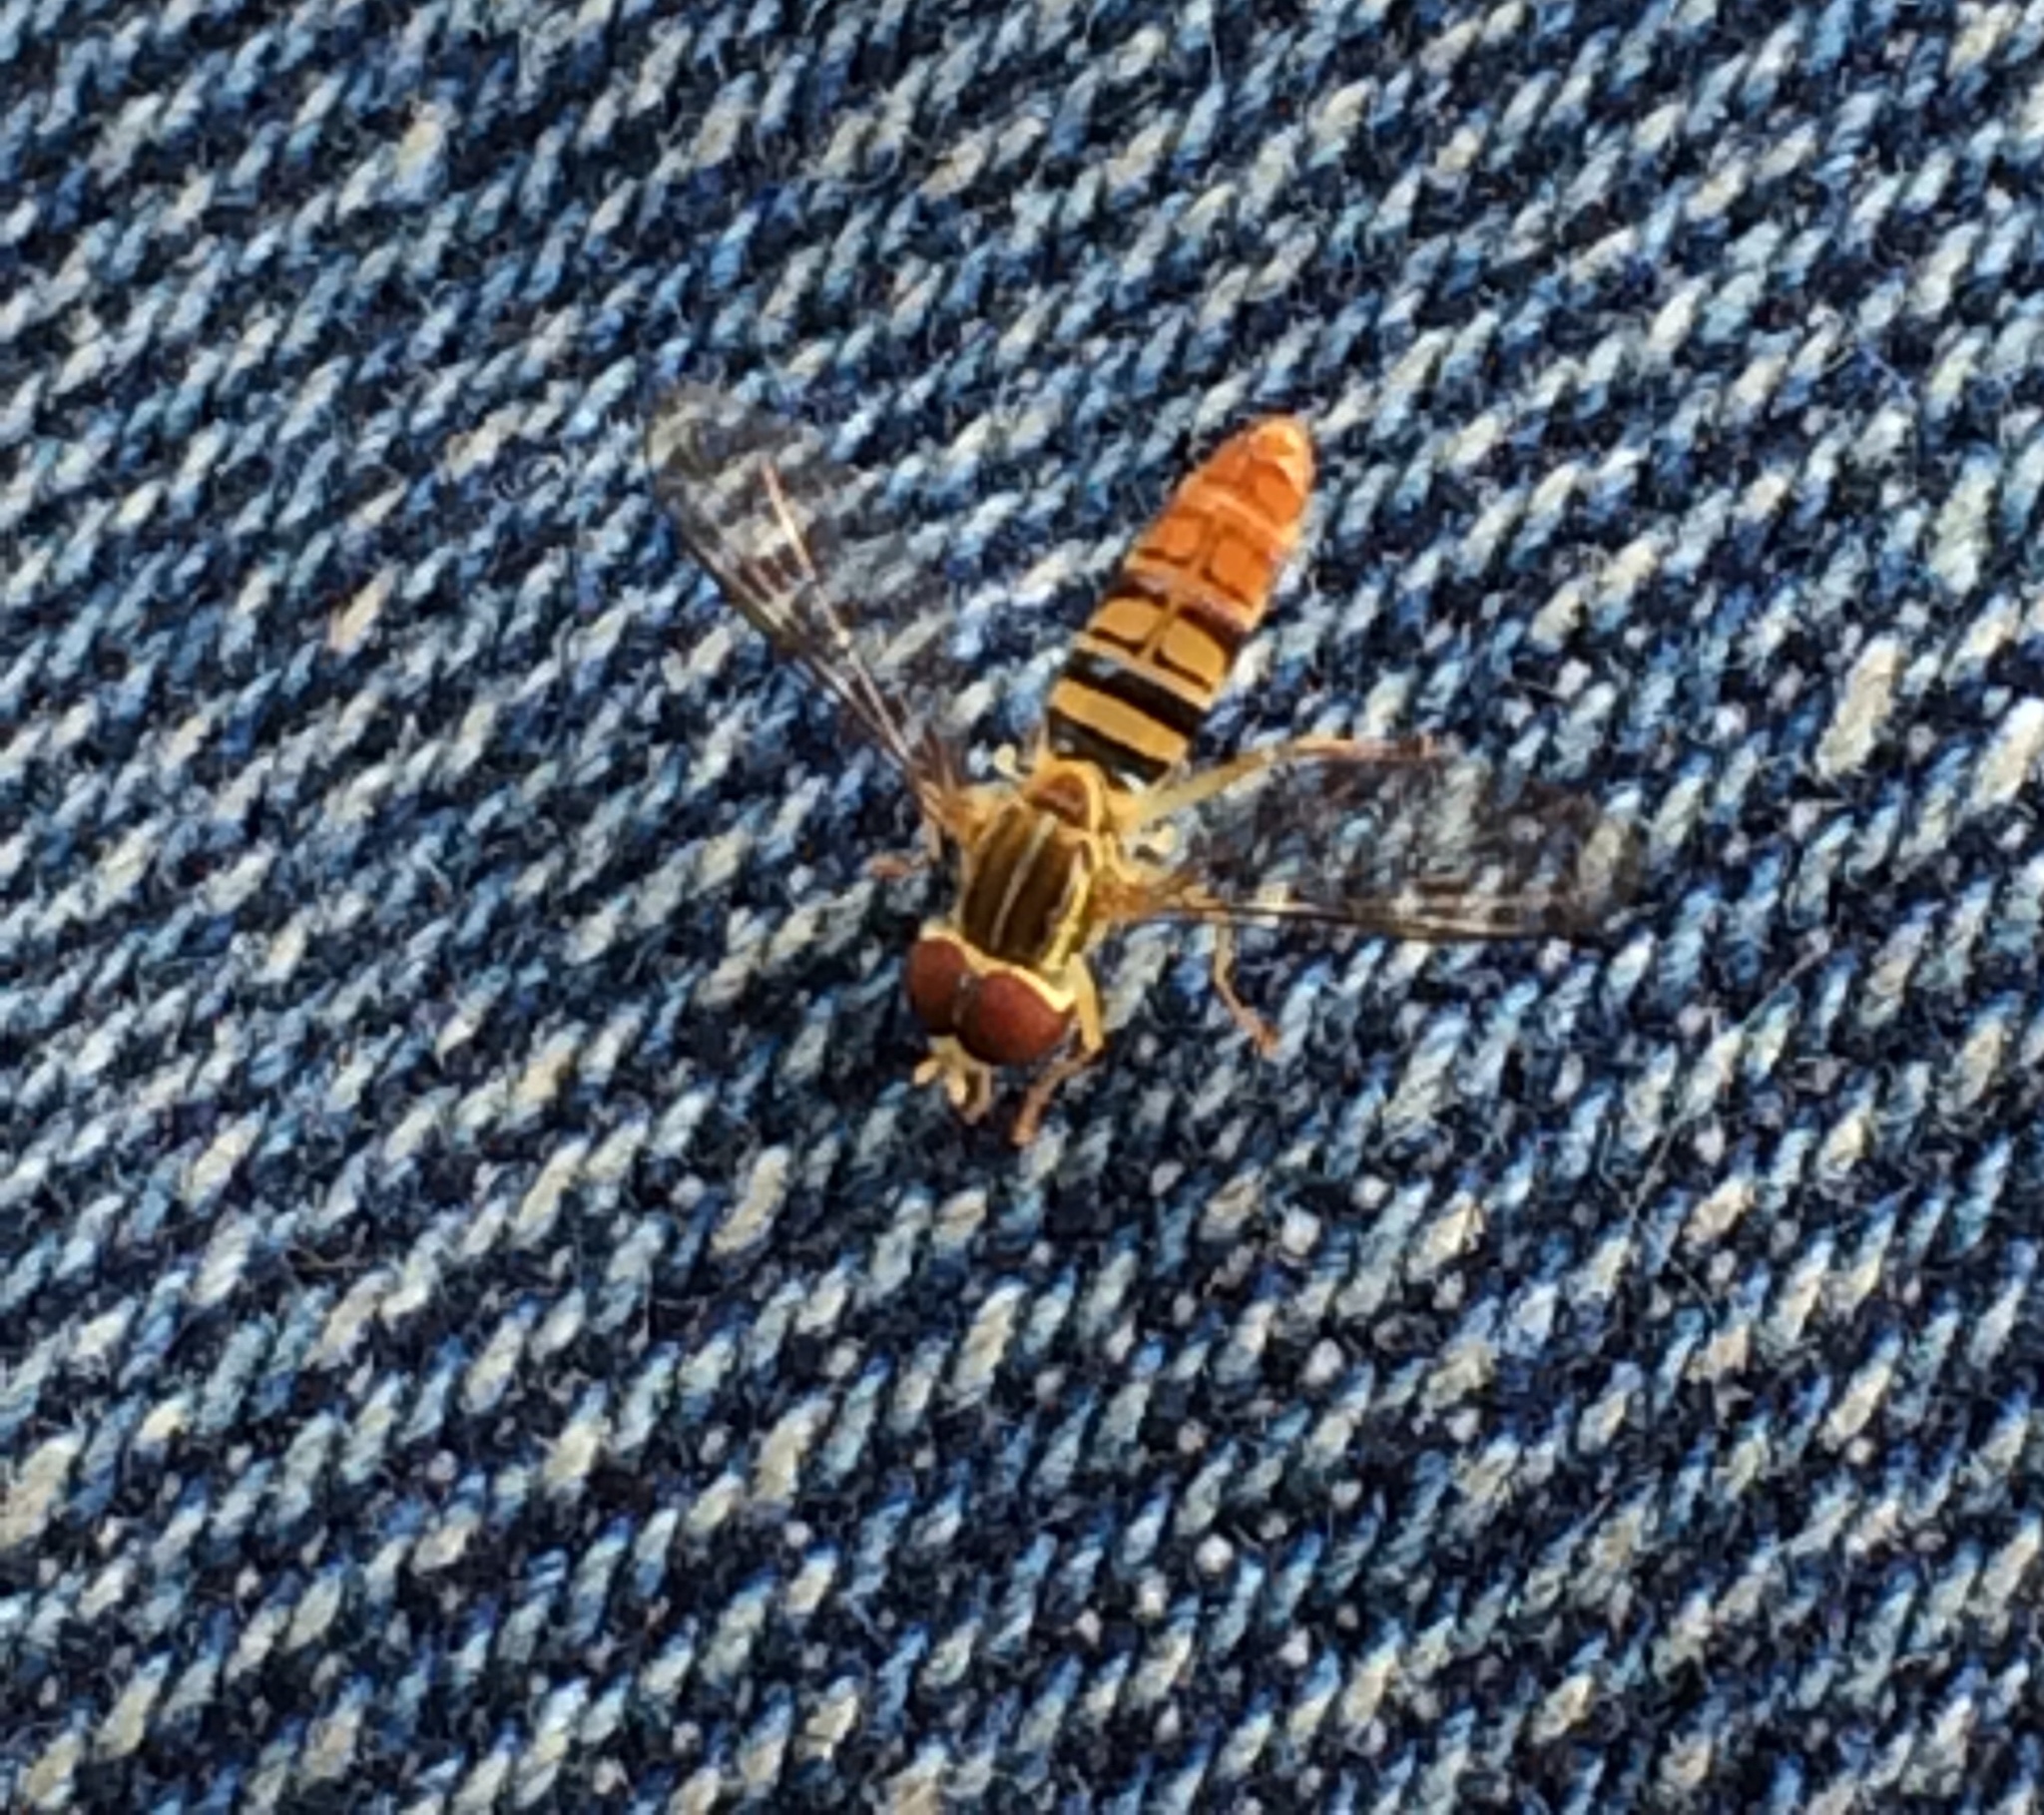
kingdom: Animalia
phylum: Arthropoda
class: Insecta
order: Diptera
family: Syrphidae
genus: Toxomerus
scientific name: Toxomerus politus
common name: Maize calligrapher
